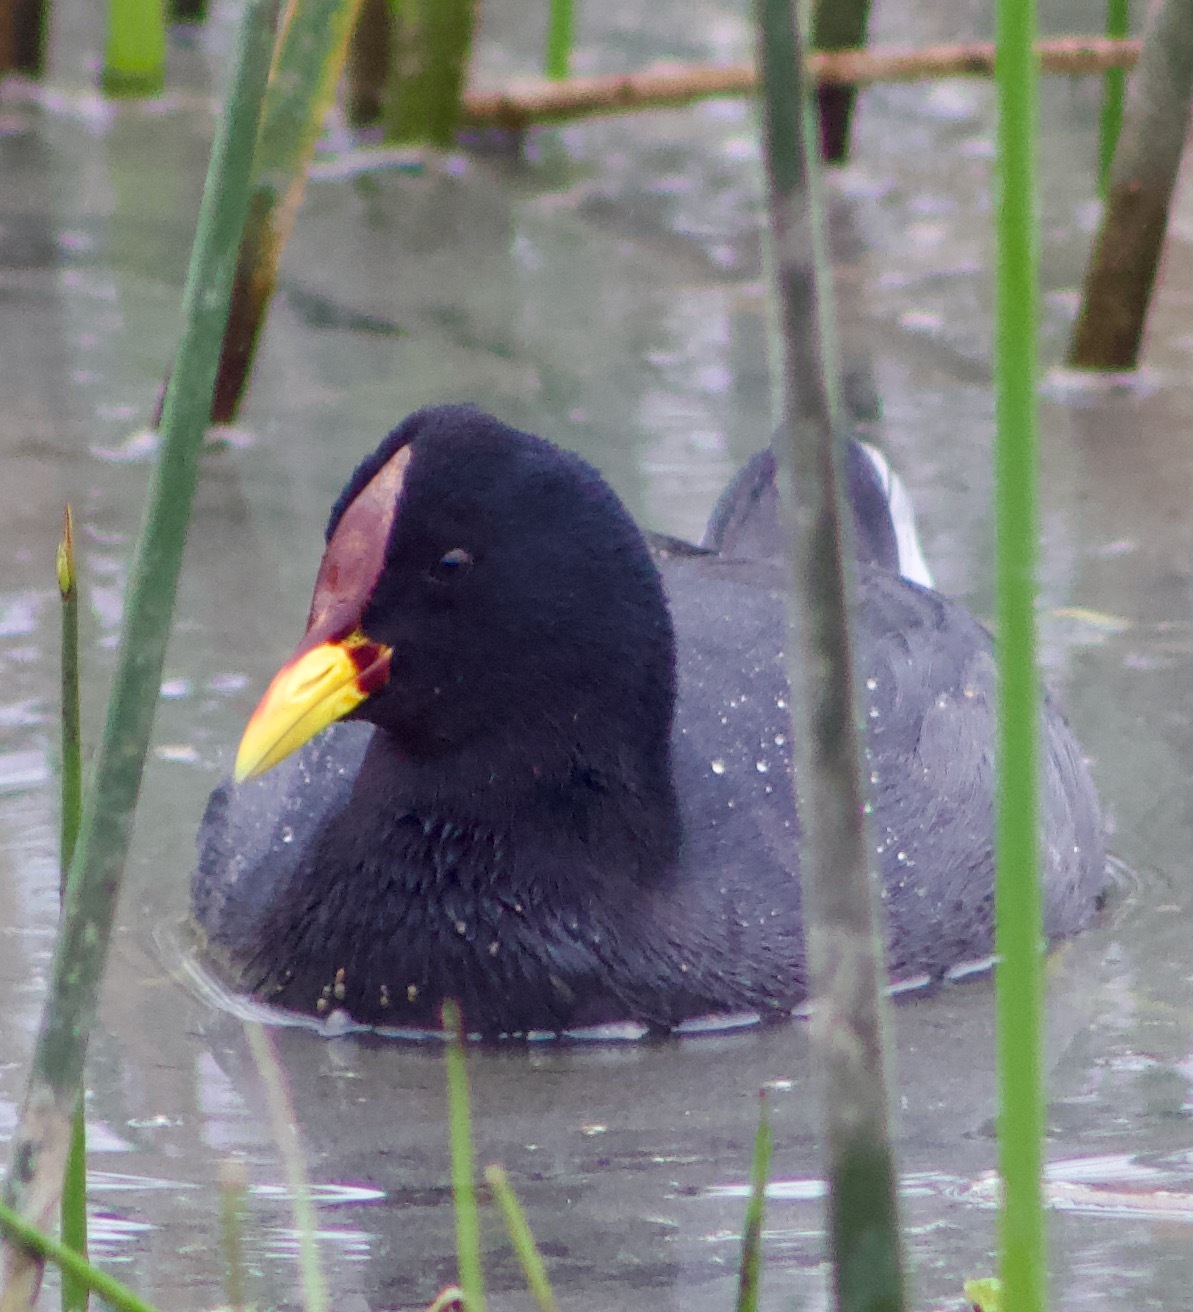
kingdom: Animalia
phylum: Chordata
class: Aves
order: Gruiformes
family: Rallidae
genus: Fulica
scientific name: Fulica rufifrons
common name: Red-fronted coot
